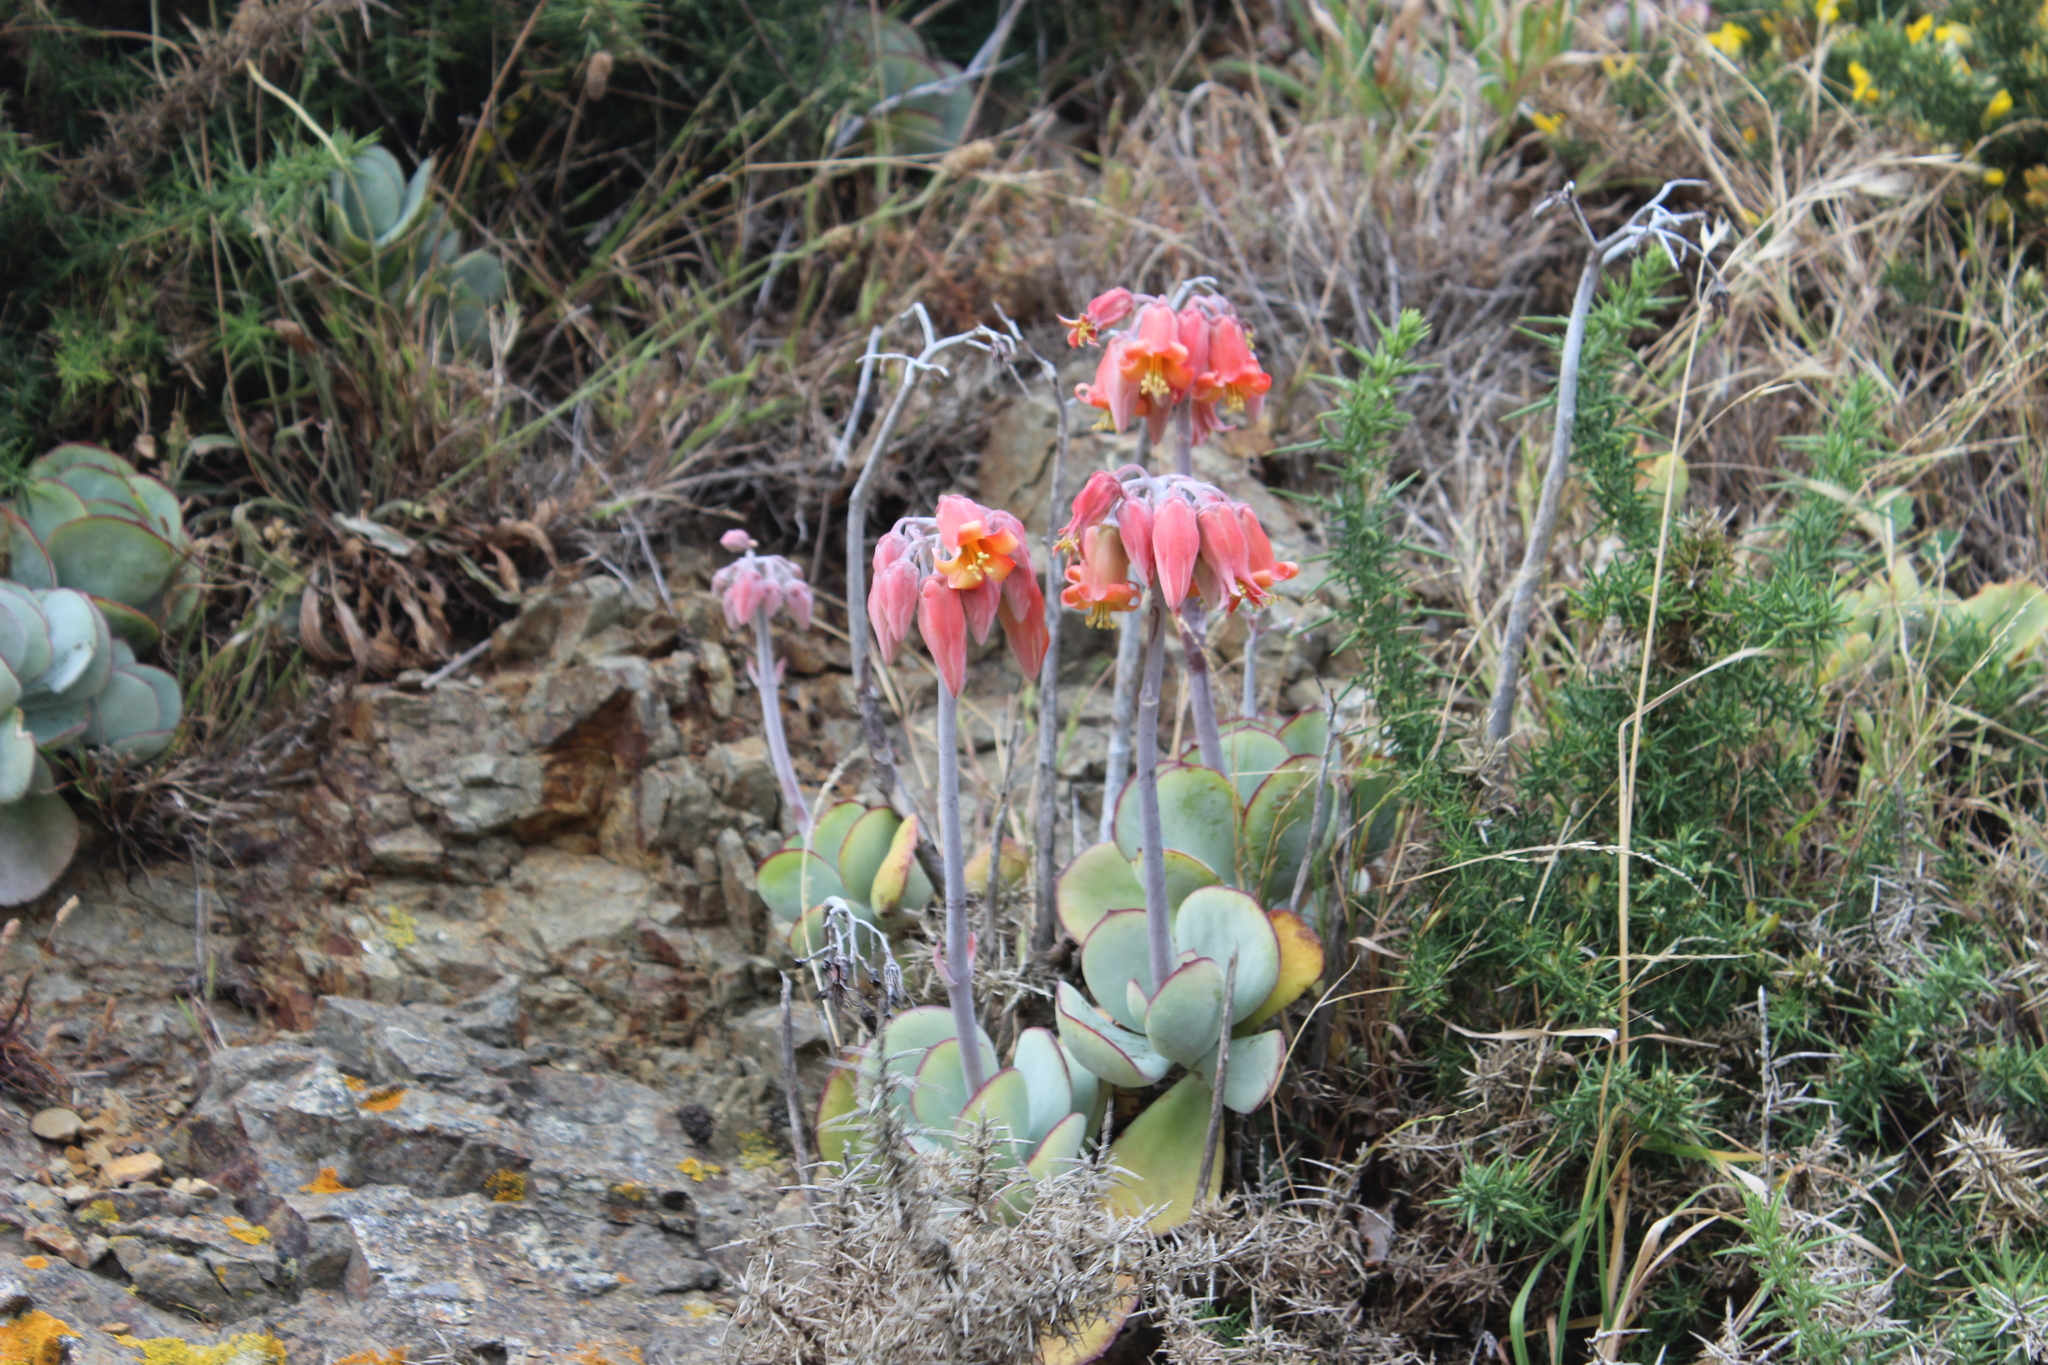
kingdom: Plantae
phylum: Tracheophyta
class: Magnoliopsida
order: Saxifragales
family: Crassulaceae
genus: Cotyledon
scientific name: Cotyledon orbiculata
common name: Pig's ear
